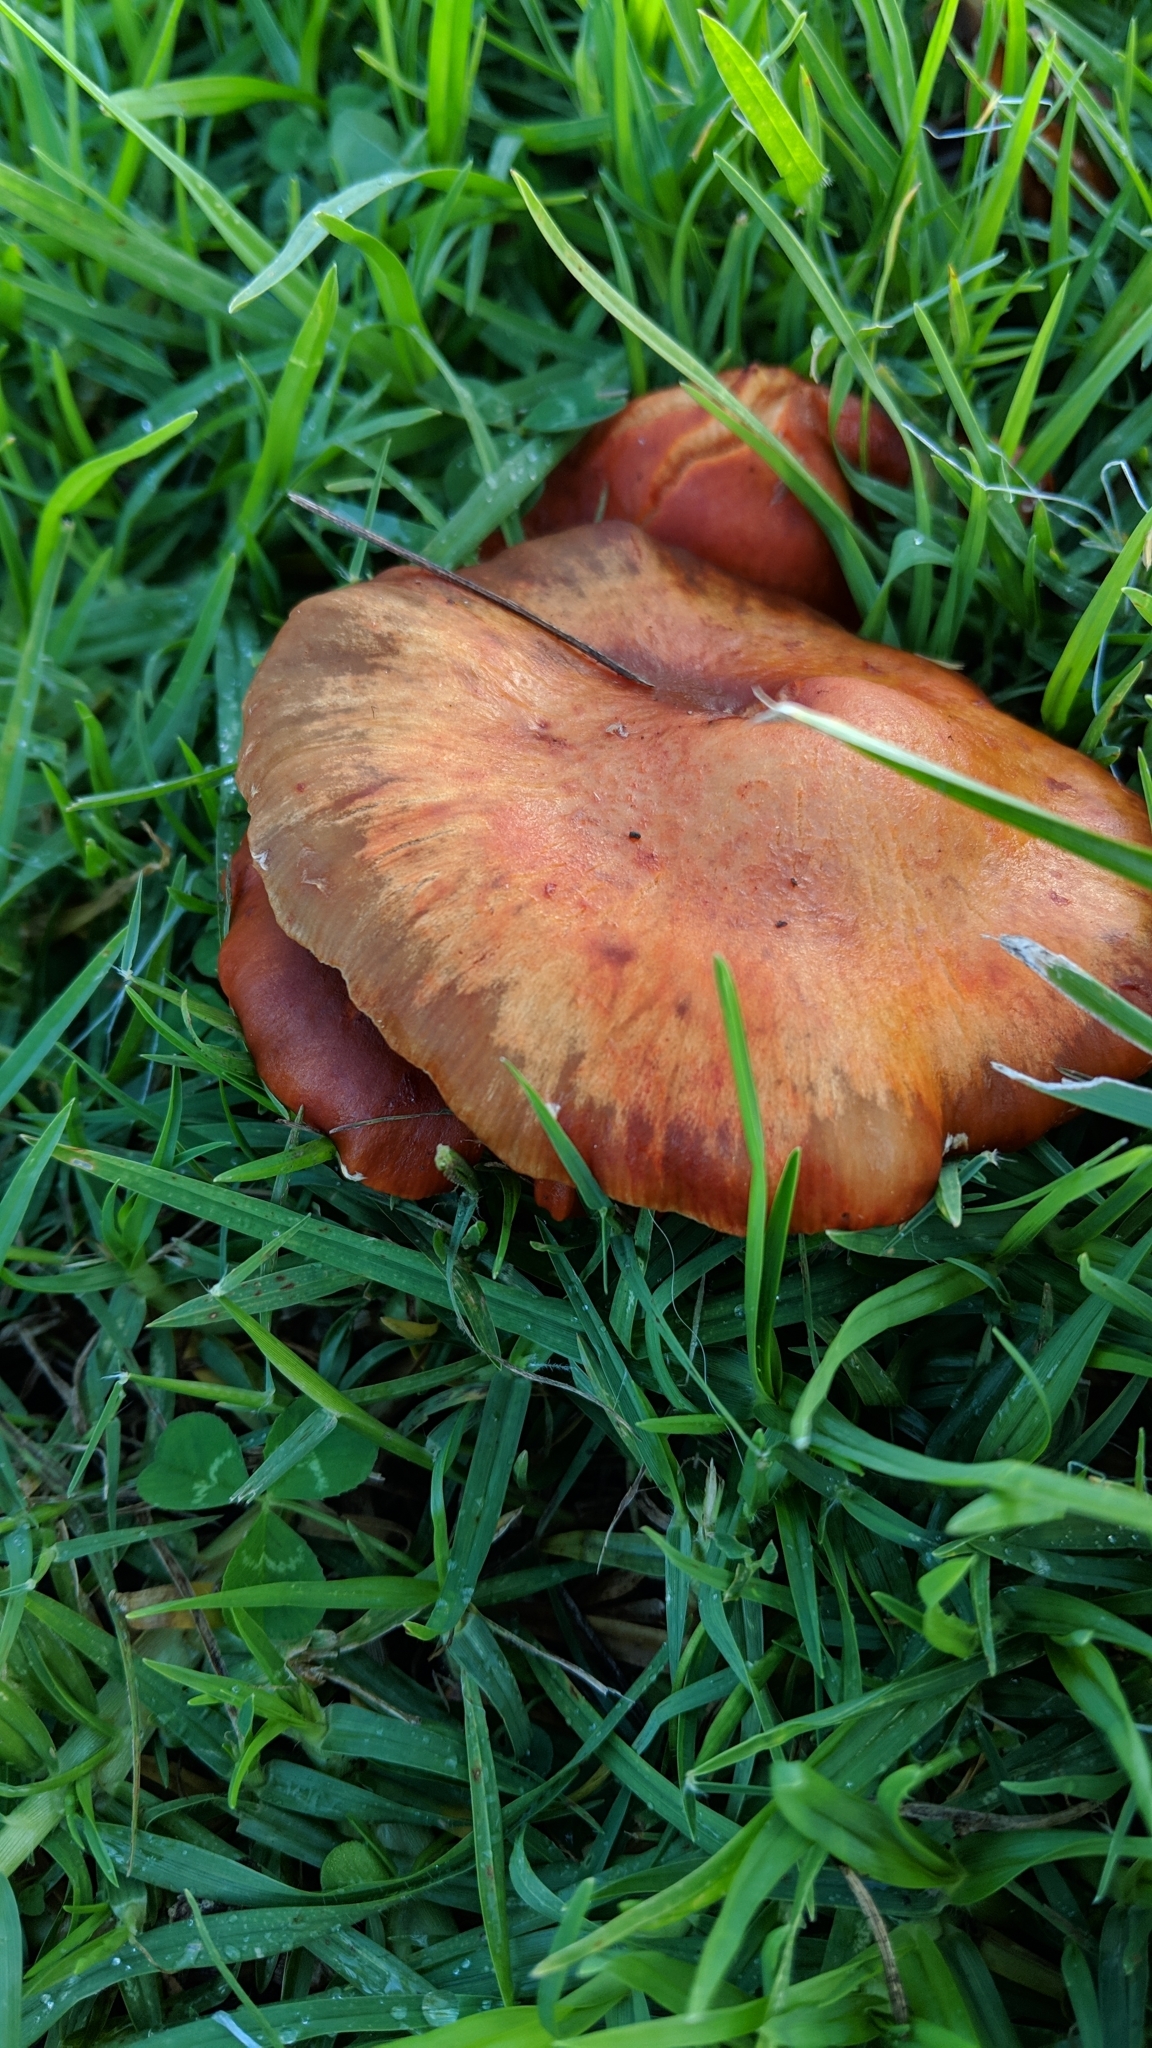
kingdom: Fungi
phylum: Basidiomycota
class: Agaricomycetes
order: Agaricales
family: Strophariaceae
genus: Leratiomyces
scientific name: Leratiomyces ceres
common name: Redlead roundhead
